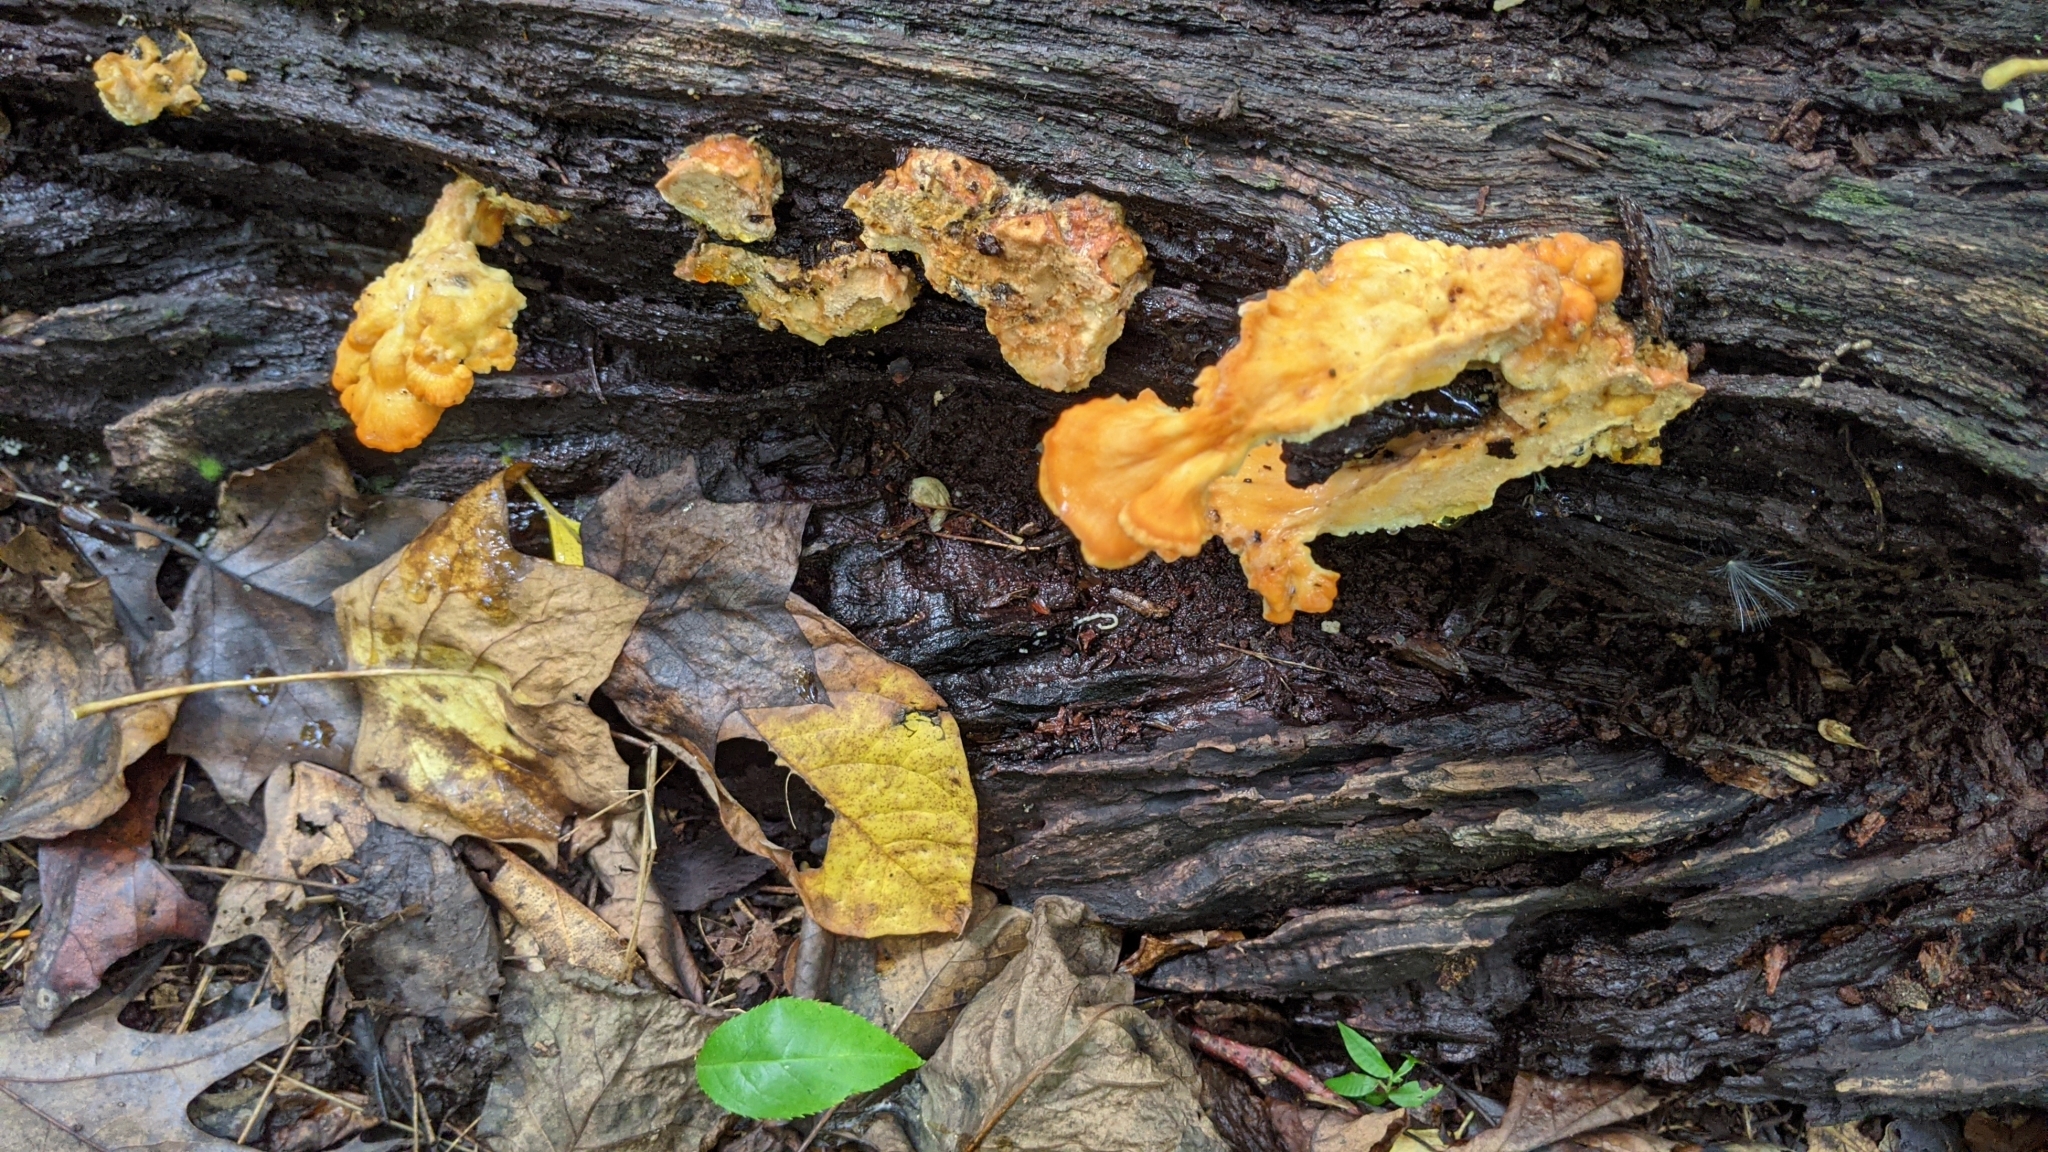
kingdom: Fungi
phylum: Basidiomycota
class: Agaricomycetes
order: Polyporales
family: Laetiporaceae
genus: Laetiporus
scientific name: Laetiporus sulphureus
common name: Chicken of the woods
